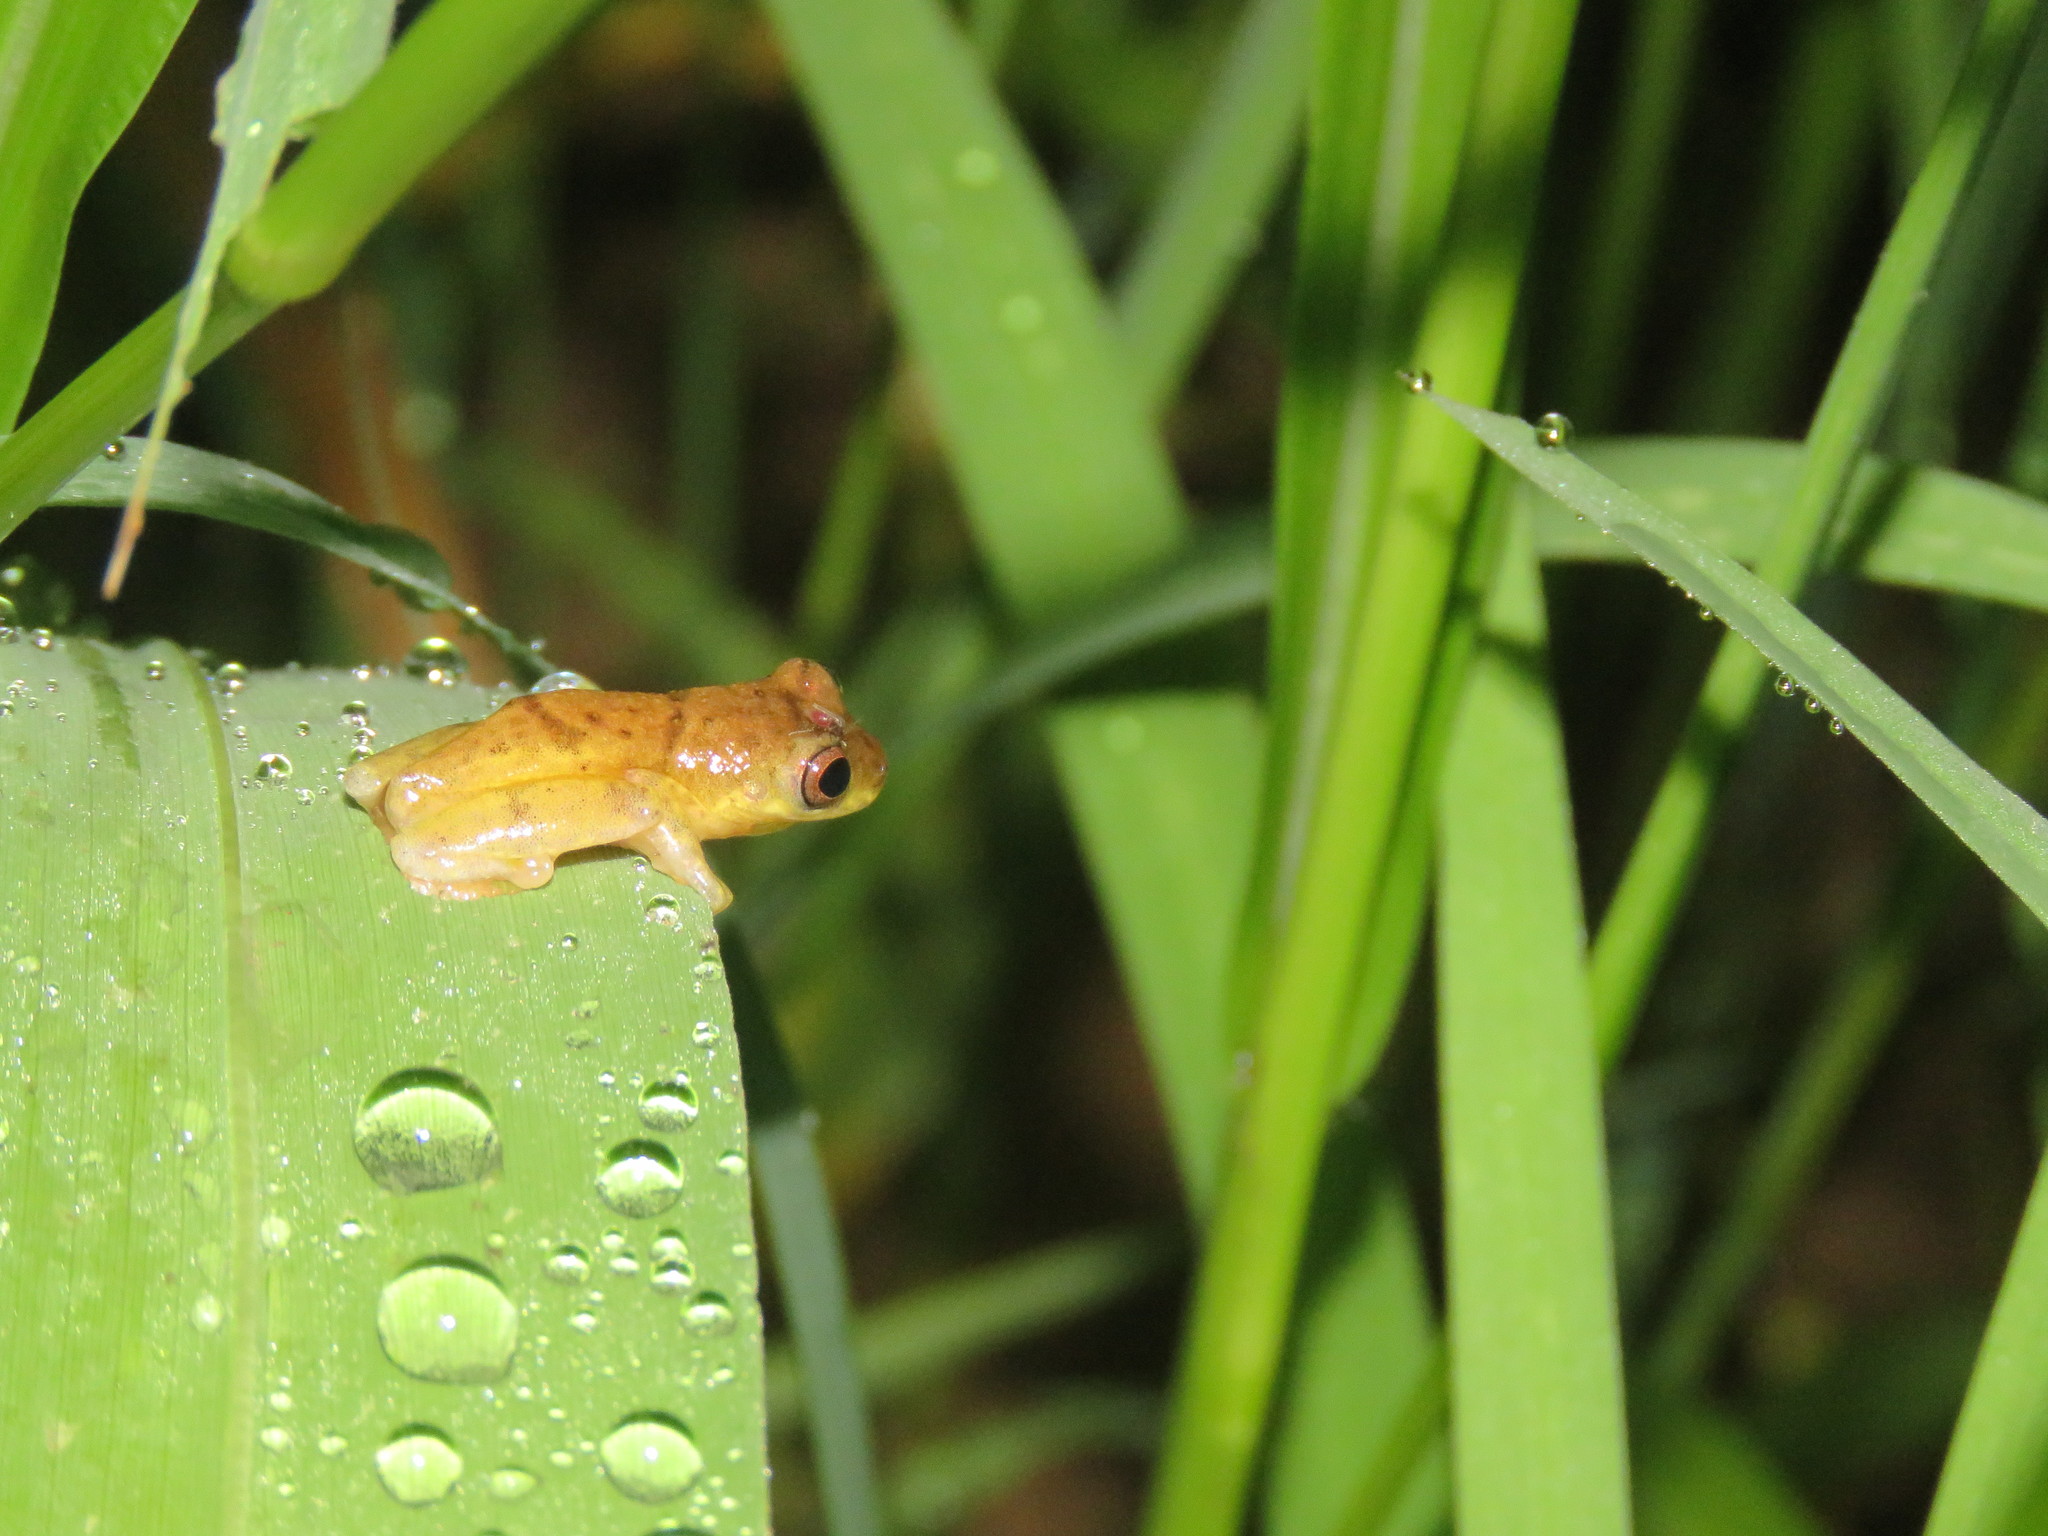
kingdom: Animalia
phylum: Chordata
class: Amphibia
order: Anura
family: Hylidae
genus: Dendropsophus
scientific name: Dendropsophus leali
